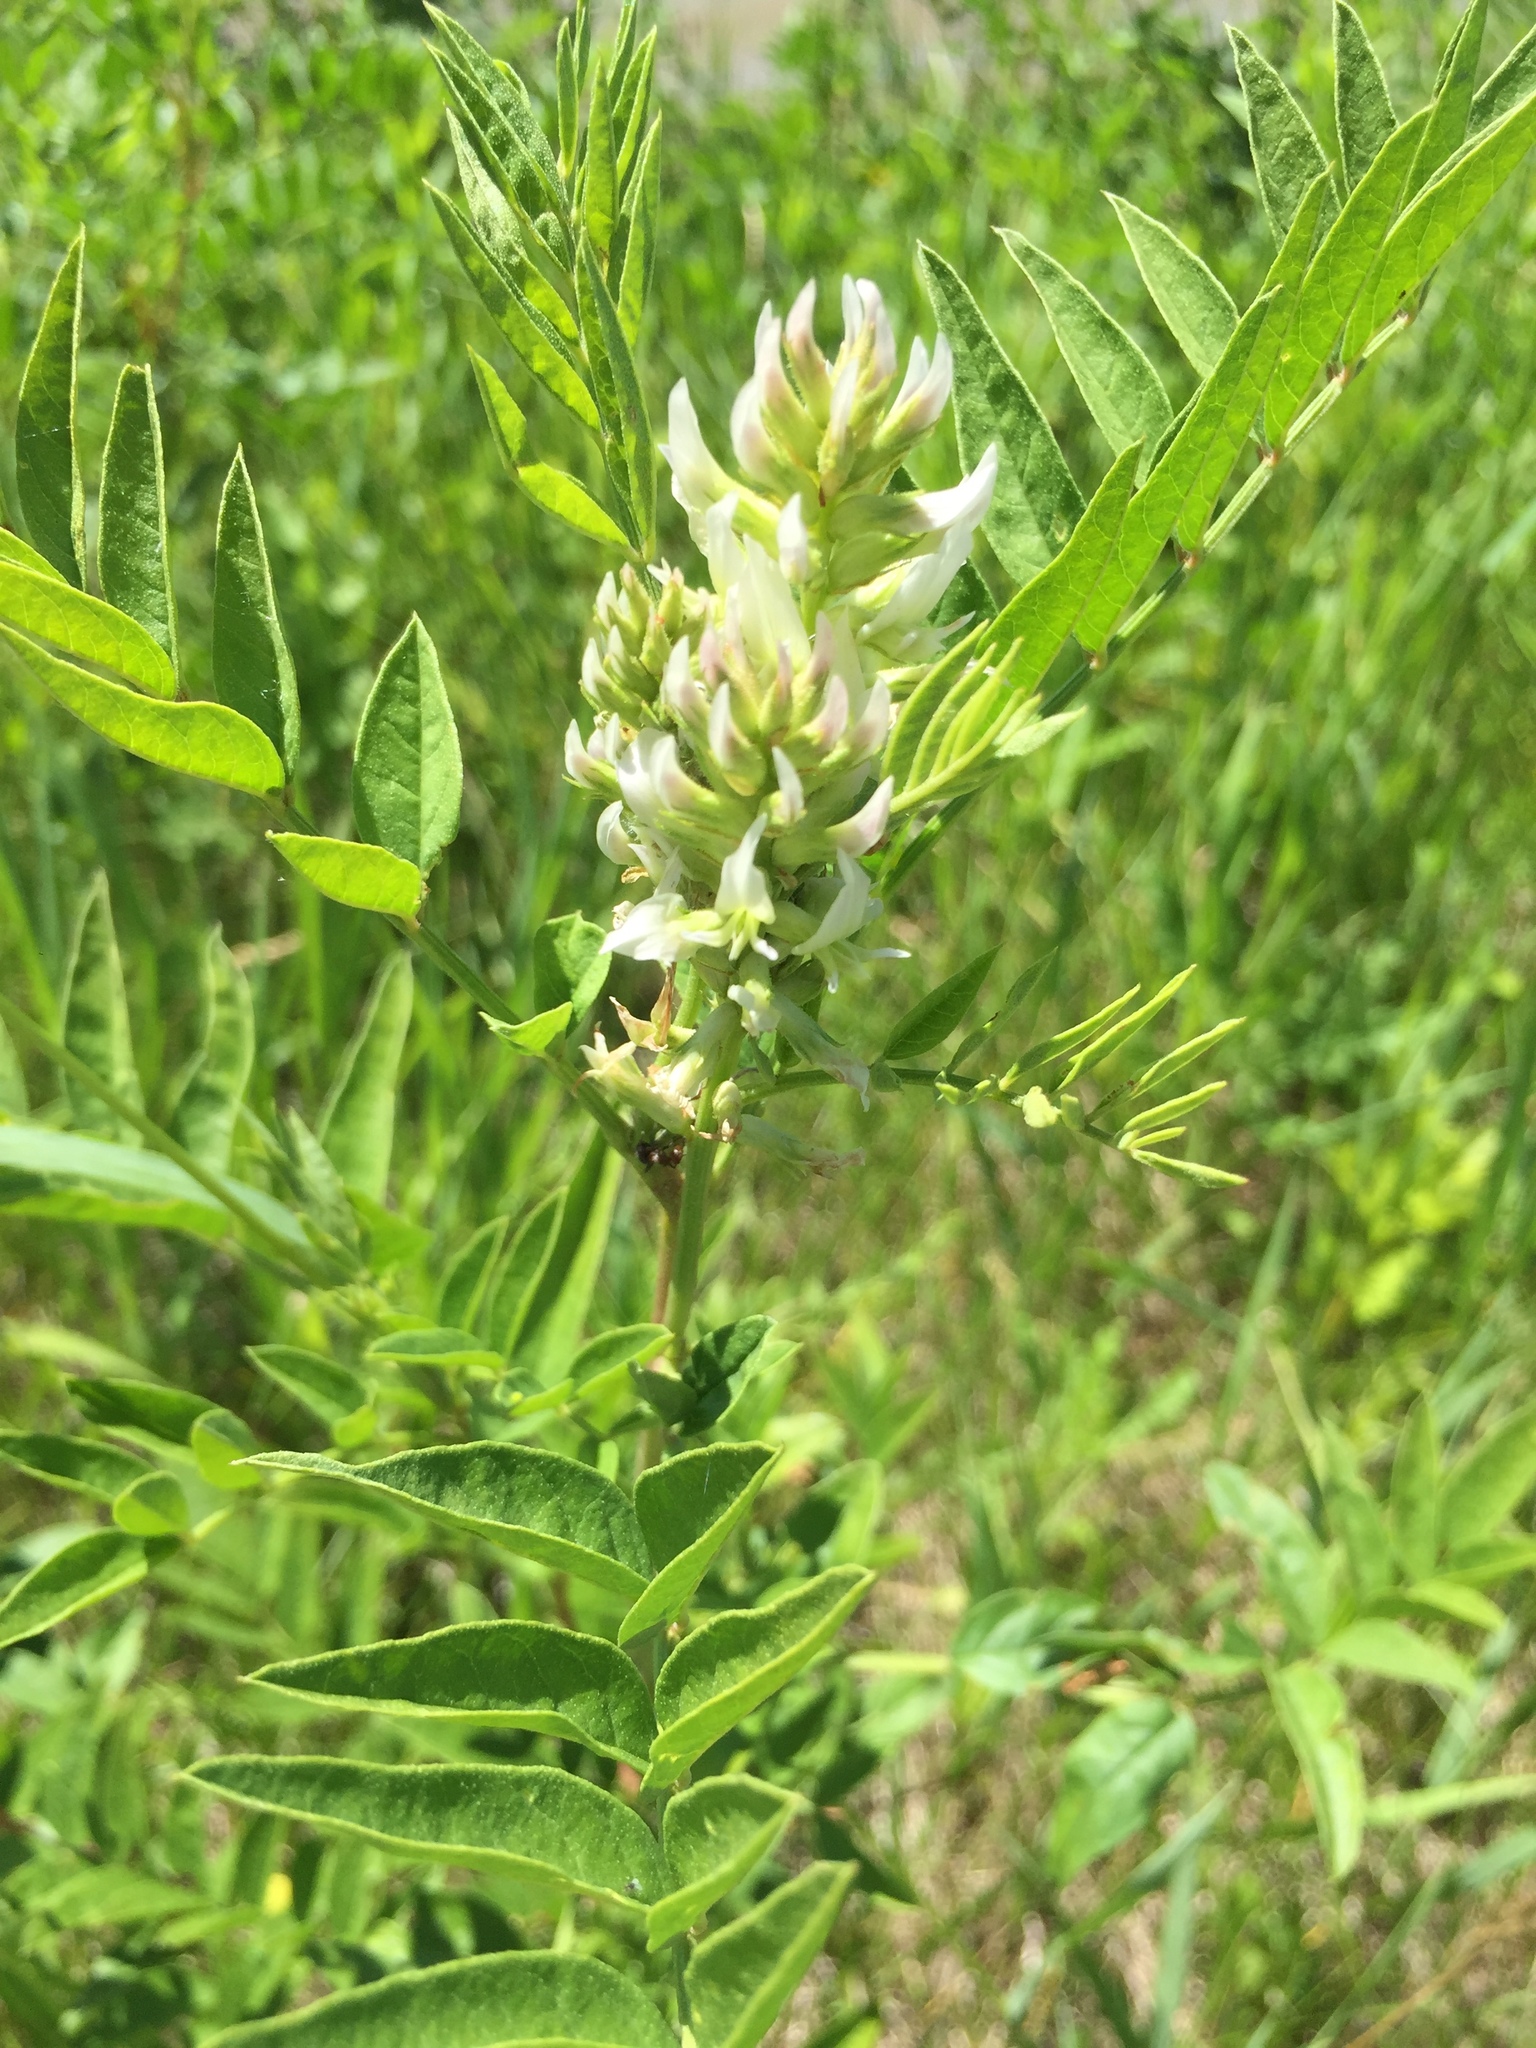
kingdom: Plantae
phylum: Tracheophyta
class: Magnoliopsida
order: Fabales
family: Fabaceae
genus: Glycyrrhiza
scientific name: Glycyrrhiza lepidota
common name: American liquorice
